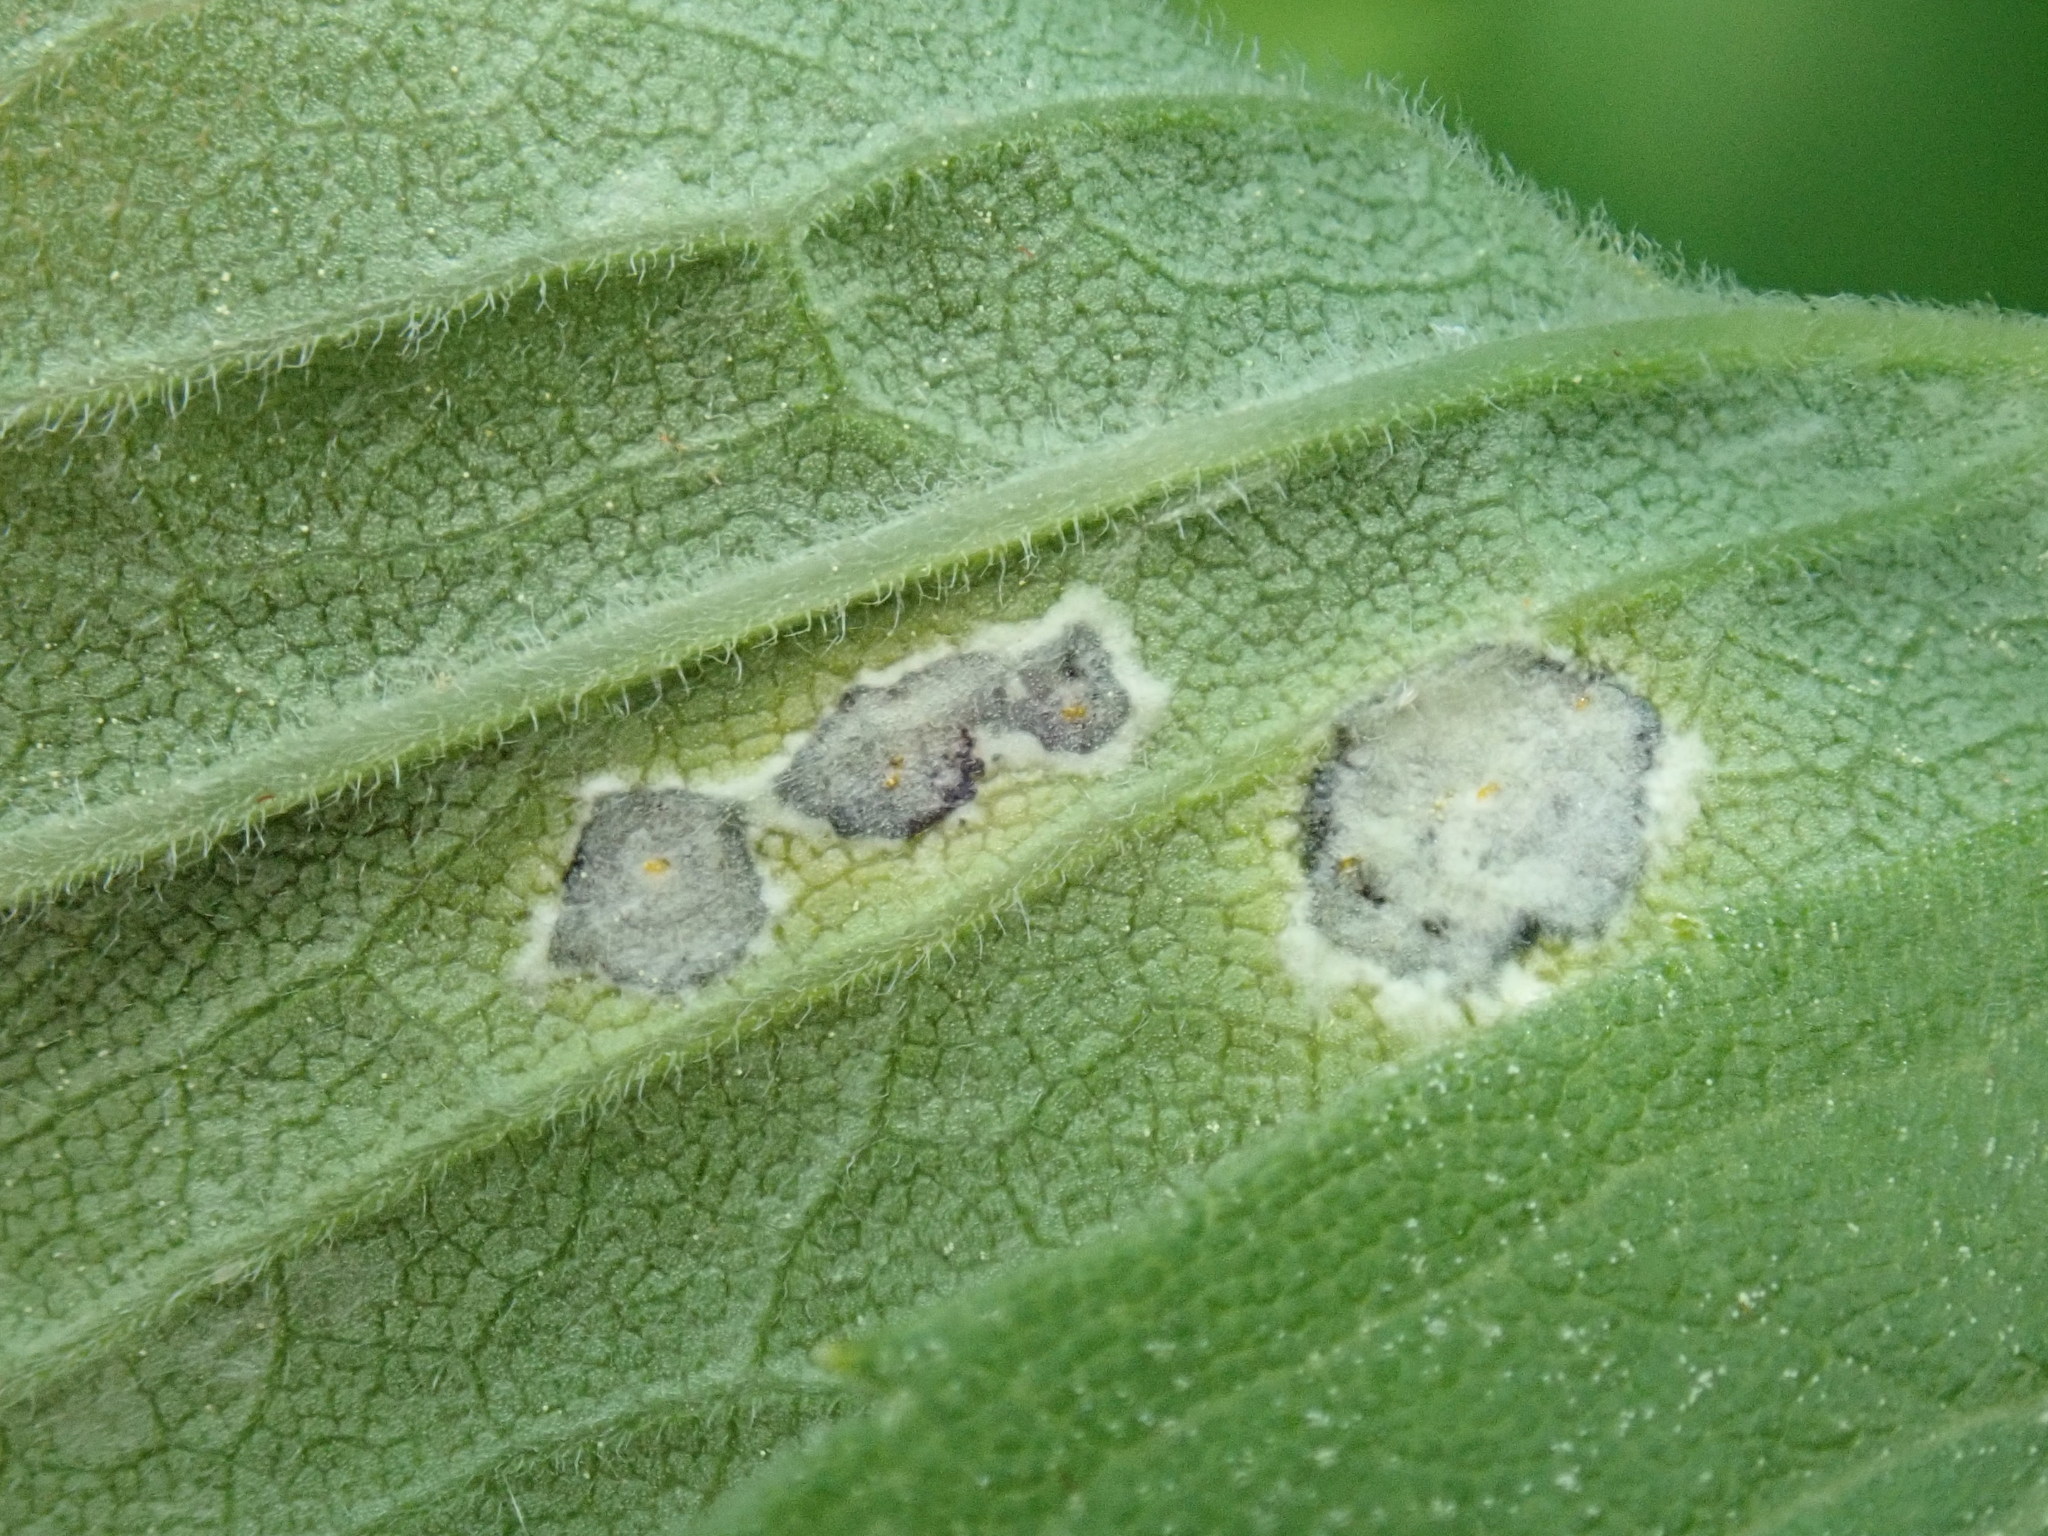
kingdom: Animalia
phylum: Arthropoda
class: Insecta
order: Diptera
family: Cecidomyiidae
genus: Asteromyia
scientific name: Asteromyia carbonifera
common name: Carbonifera goldenrod gall midge
